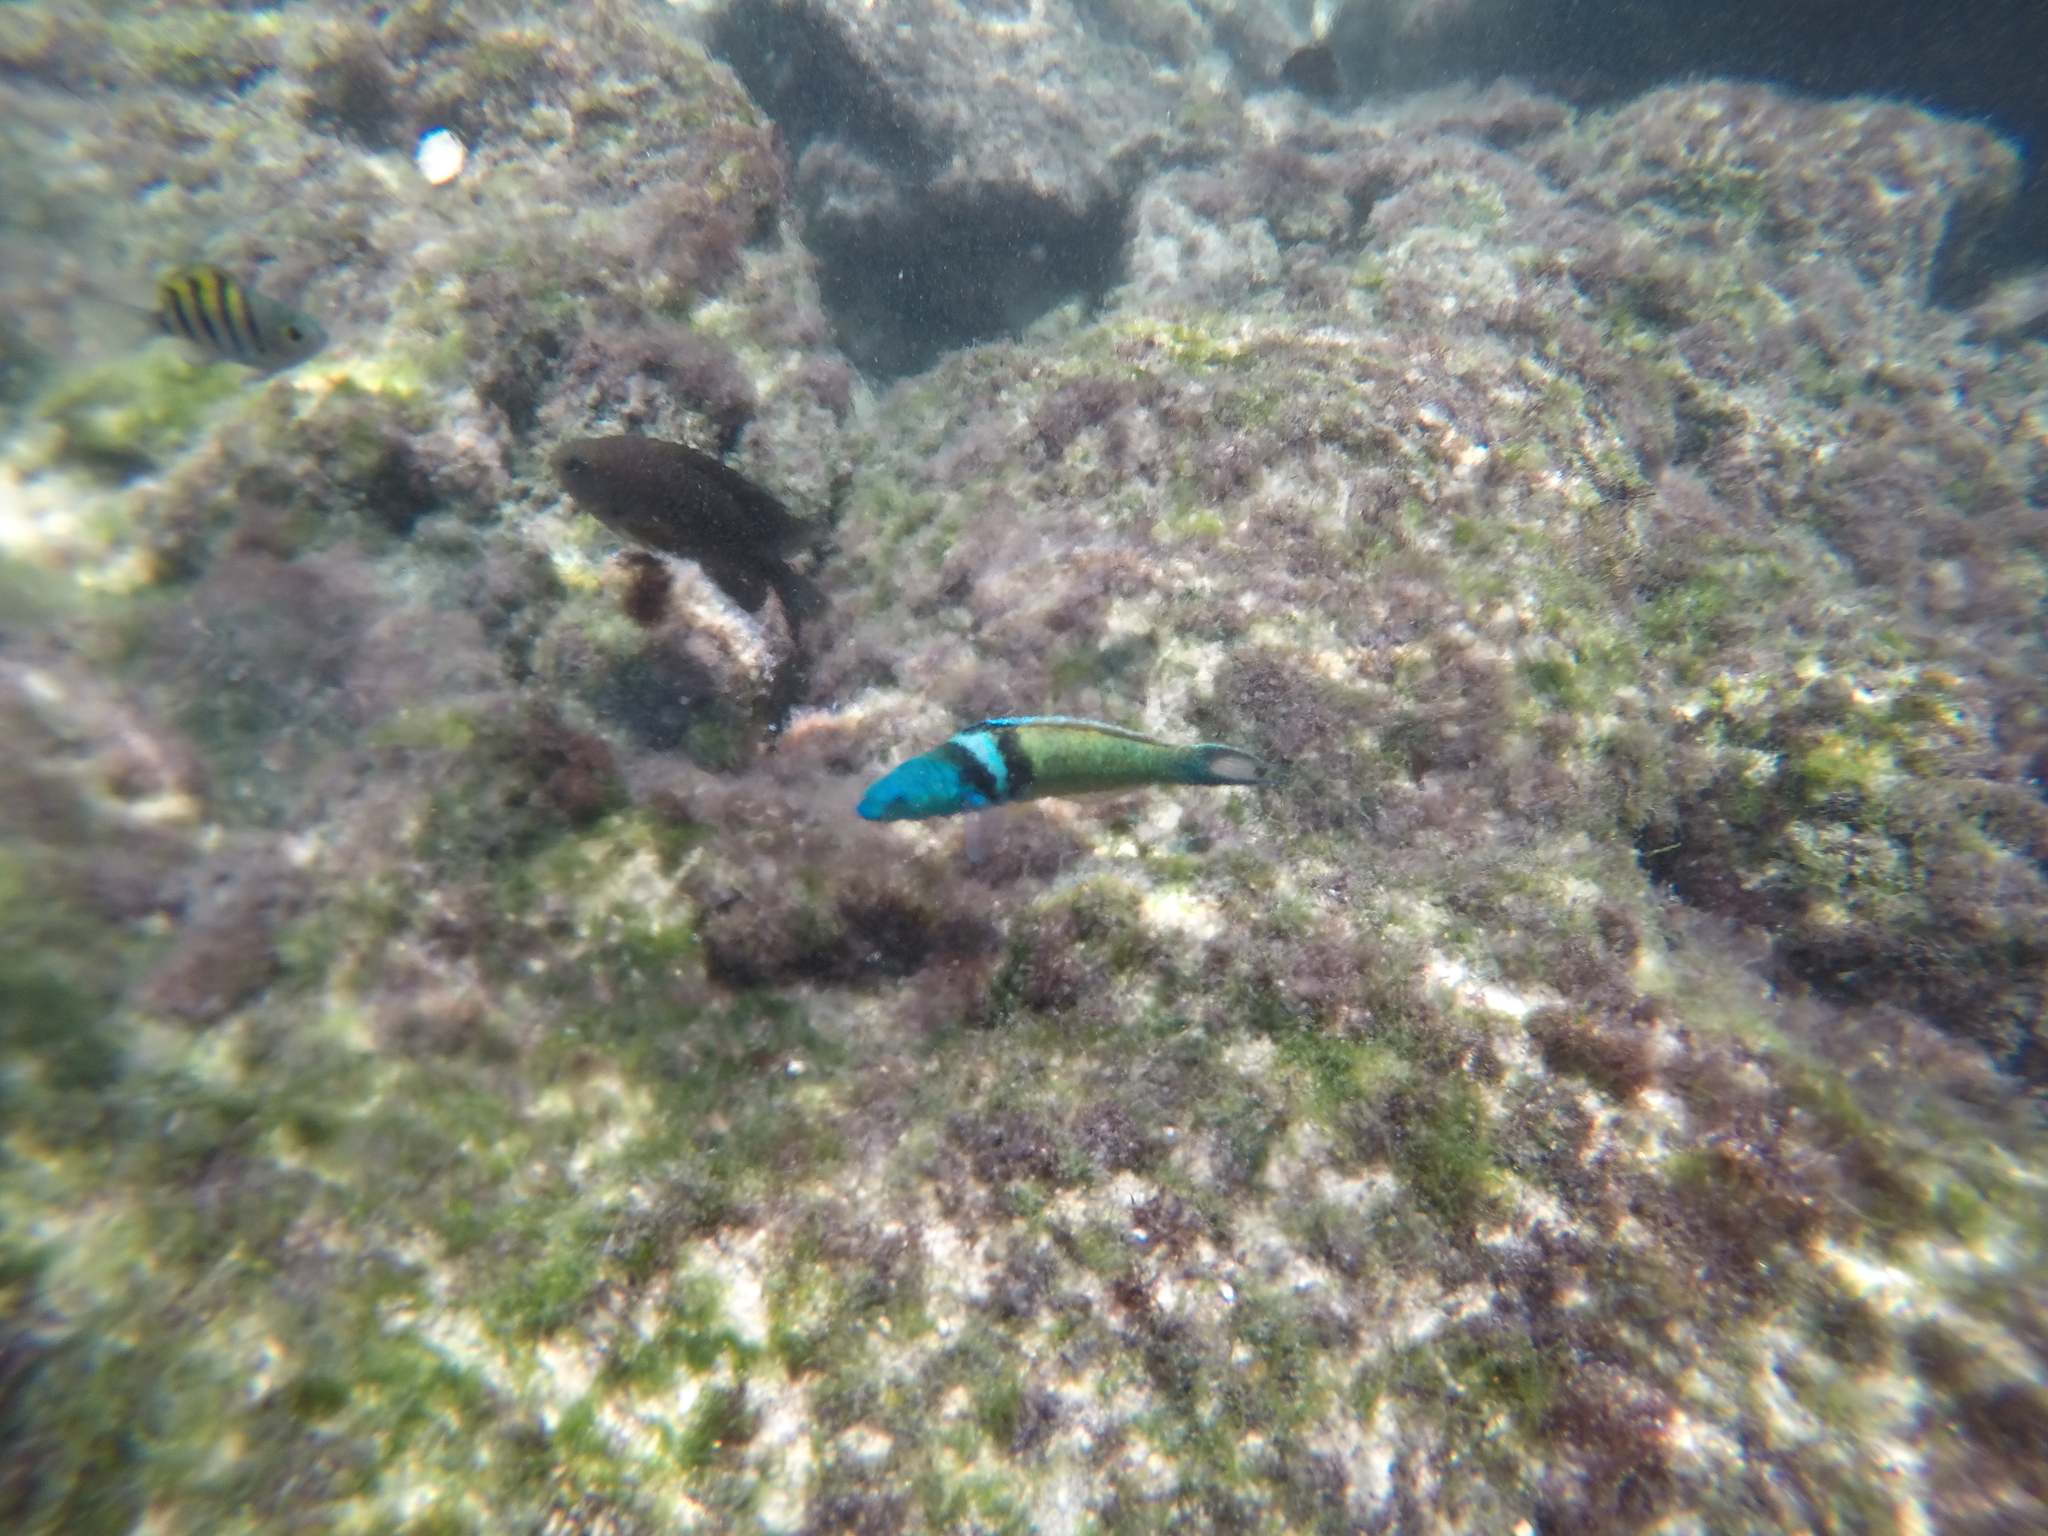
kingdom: Animalia
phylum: Chordata
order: Perciformes
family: Labridae
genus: Thalassoma
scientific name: Thalassoma bifasciatum
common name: Bluehead wrasse
